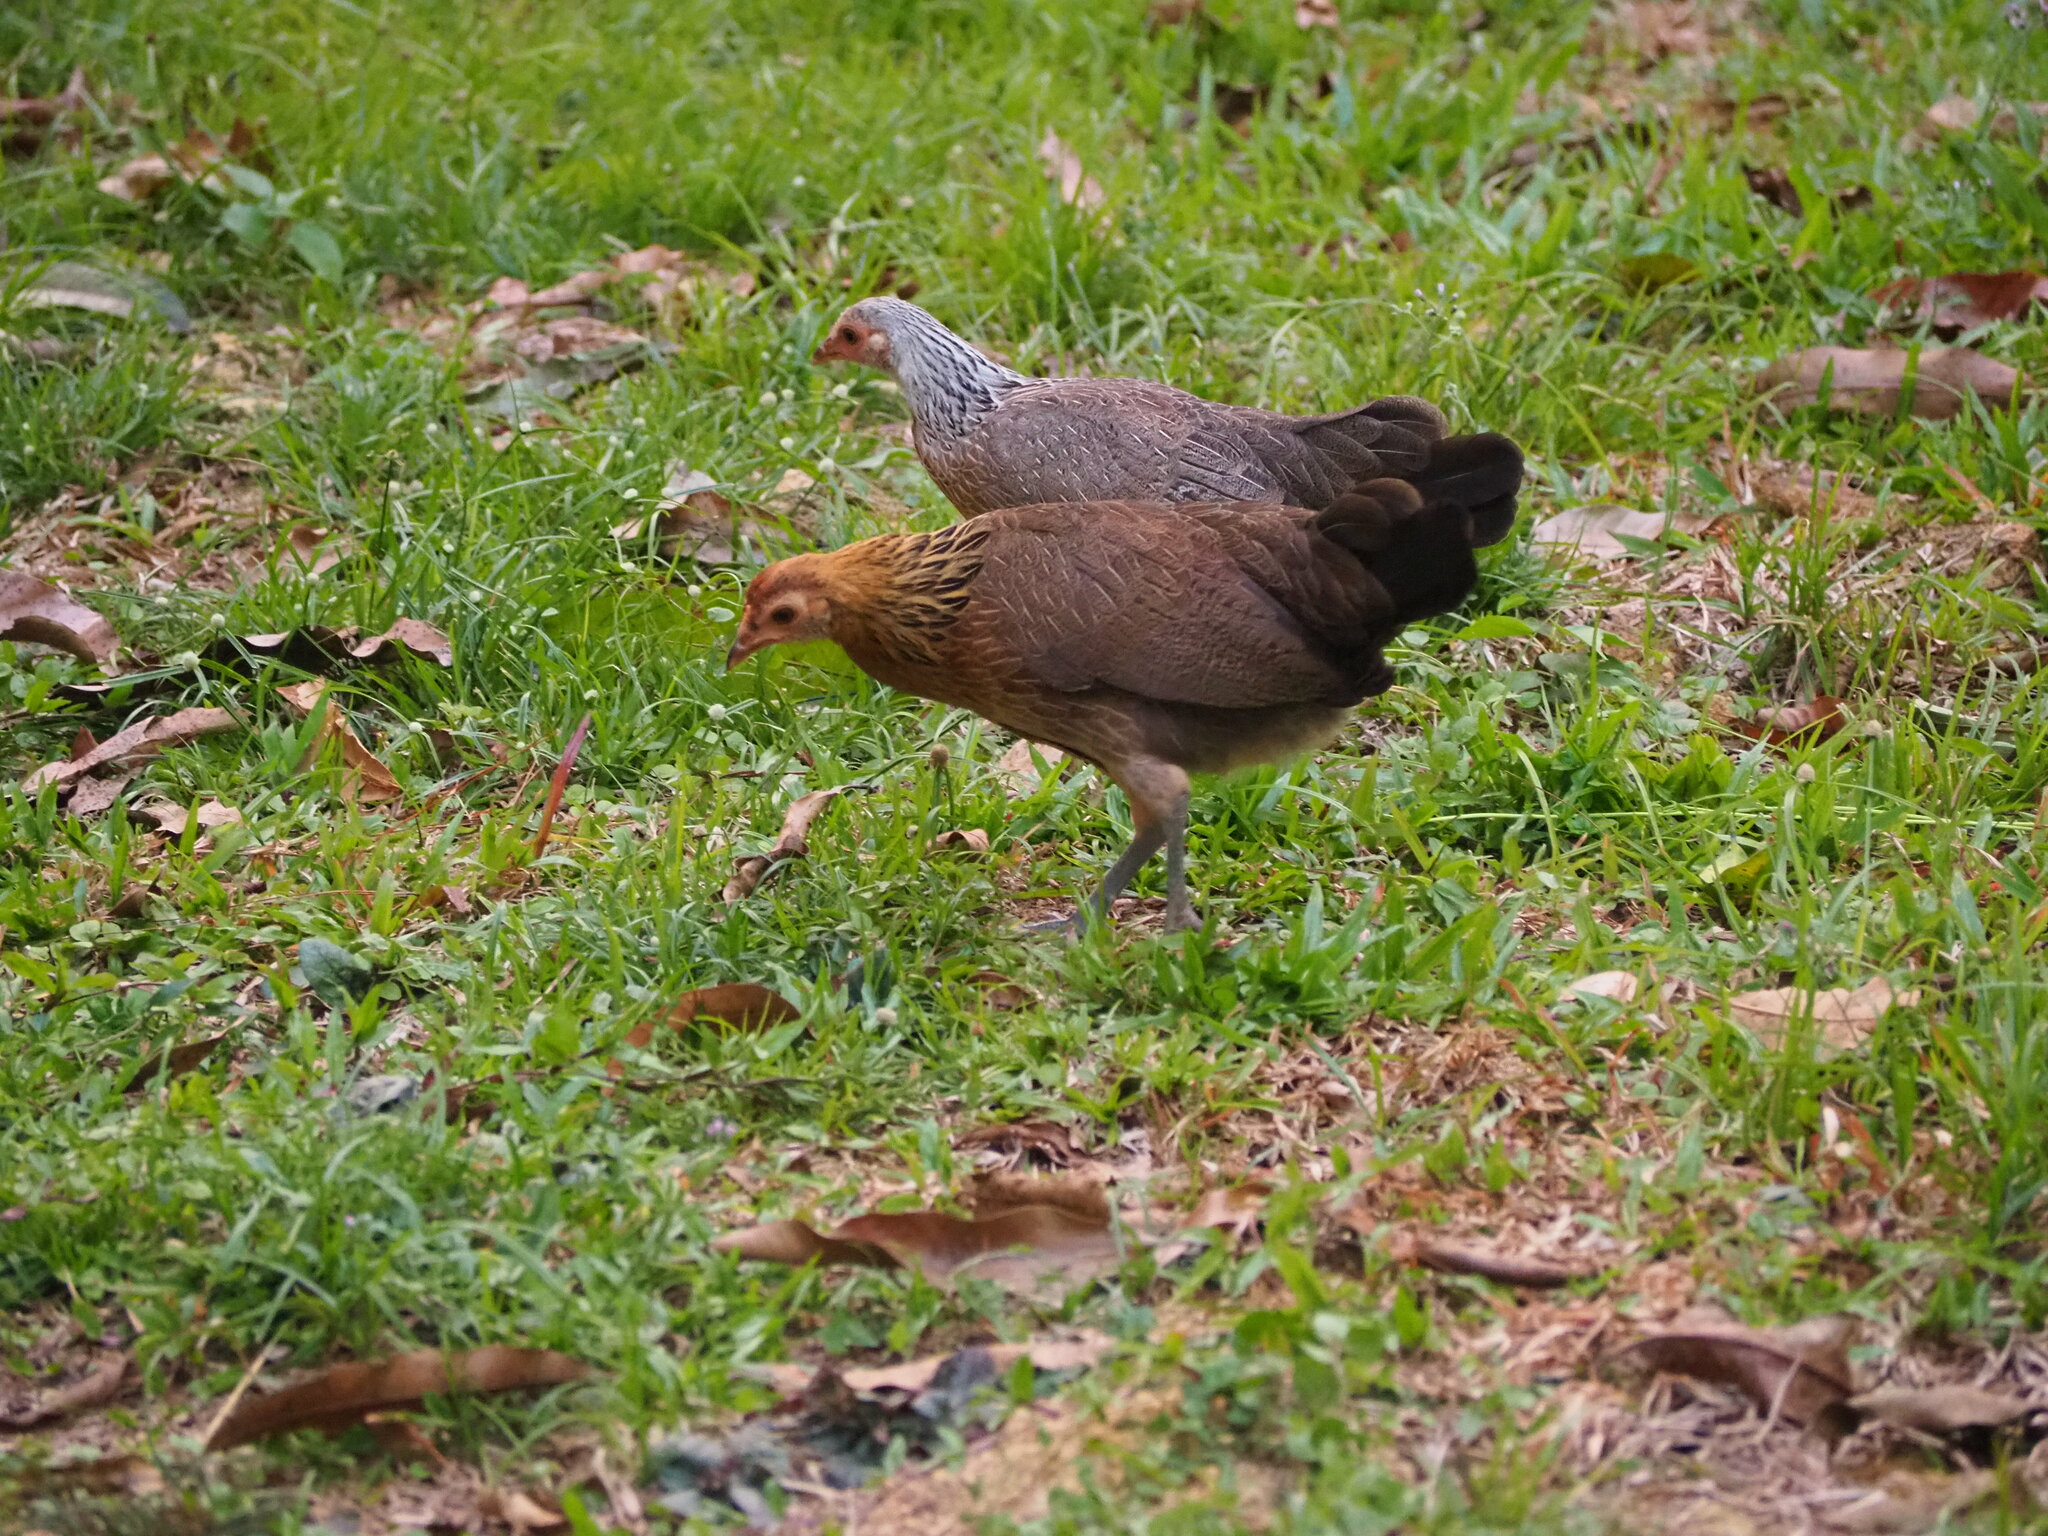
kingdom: Animalia
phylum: Chordata
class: Aves
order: Galliformes
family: Phasianidae
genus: Gallus
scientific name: Gallus gallus
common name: Red junglefowl
